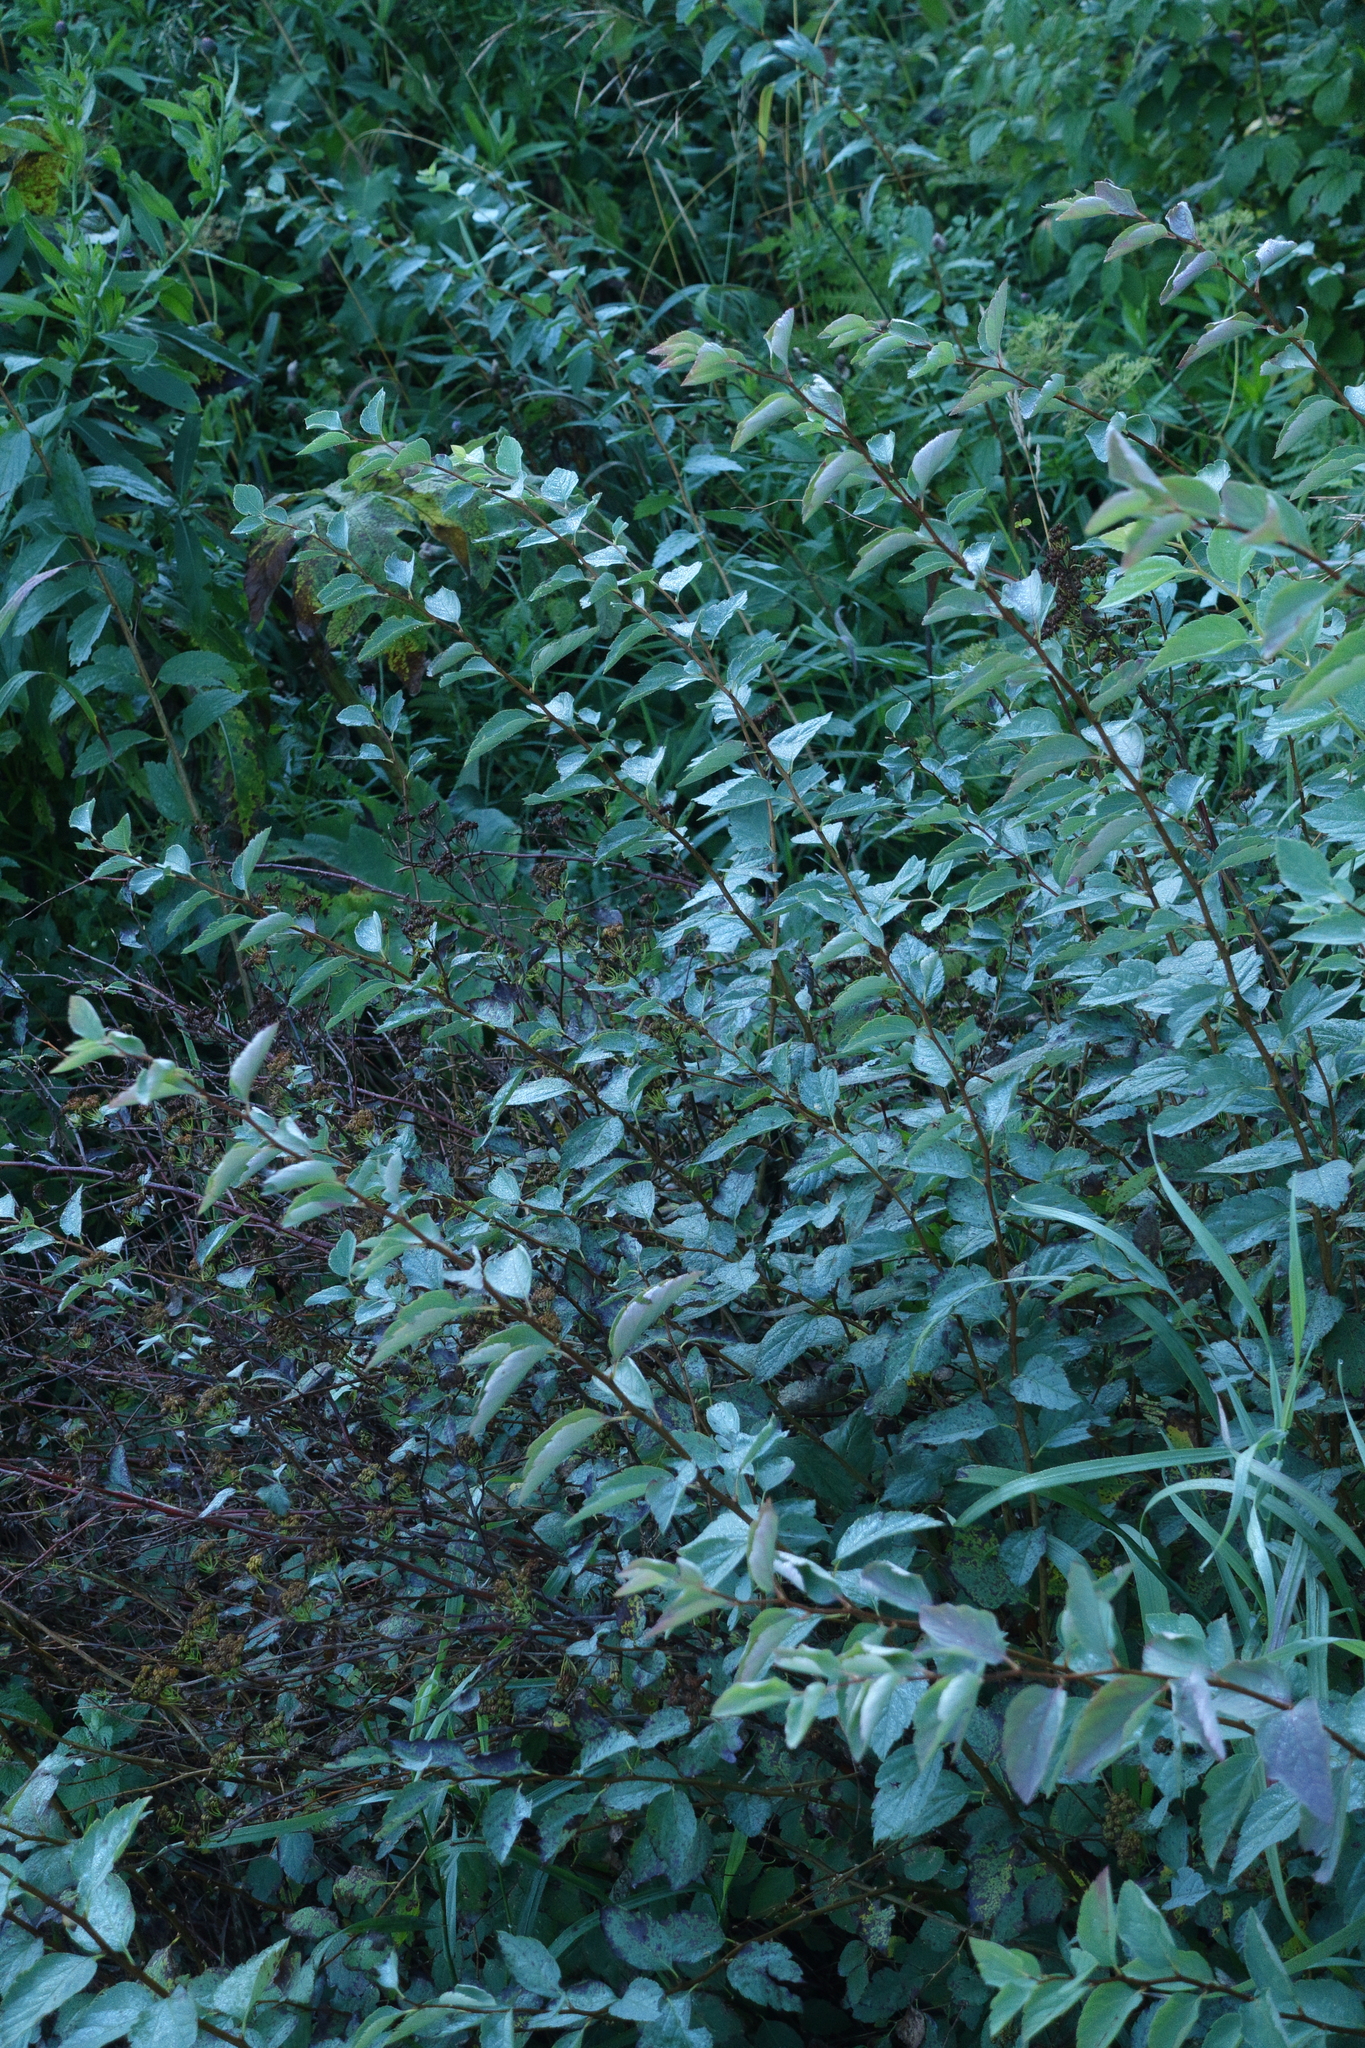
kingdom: Plantae
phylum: Tracheophyta
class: Magnoliopsida
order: Rosales
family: Rosaceae
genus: Spiraea
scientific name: Spiraea chamaedryfolia
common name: Elm-leaved spiraea
